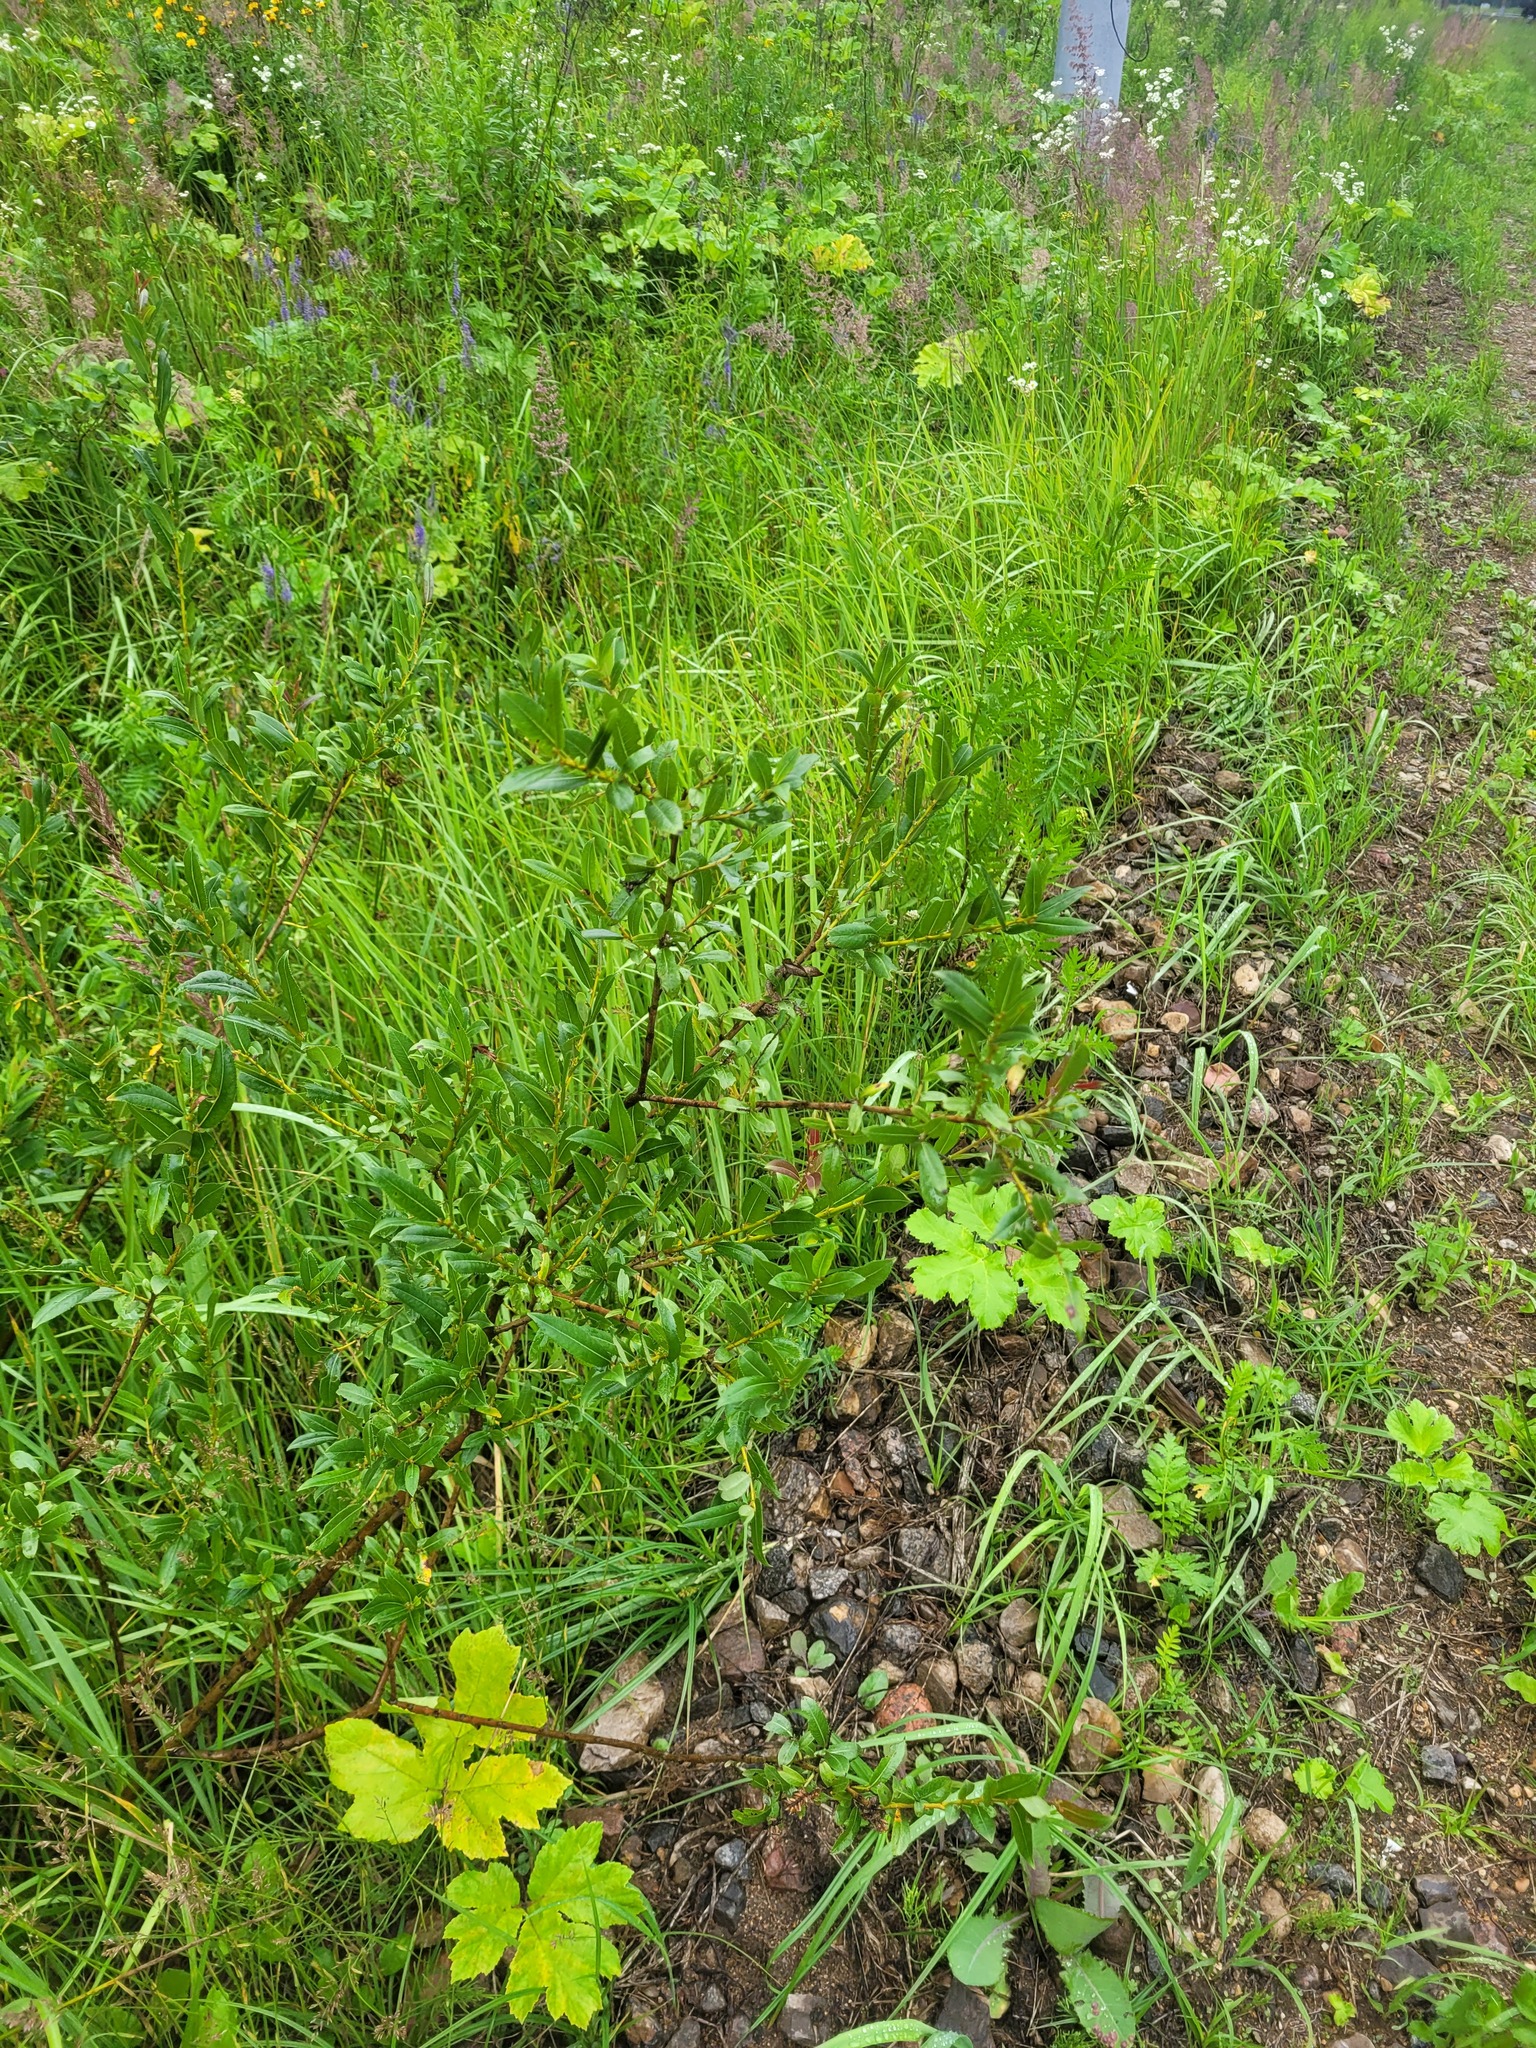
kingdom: Plantae
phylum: Tracheophyta
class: Magnoliopsida
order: Malpighiales
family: Salicaceae
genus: Salix
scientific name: Salix triandra
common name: Almond willow
